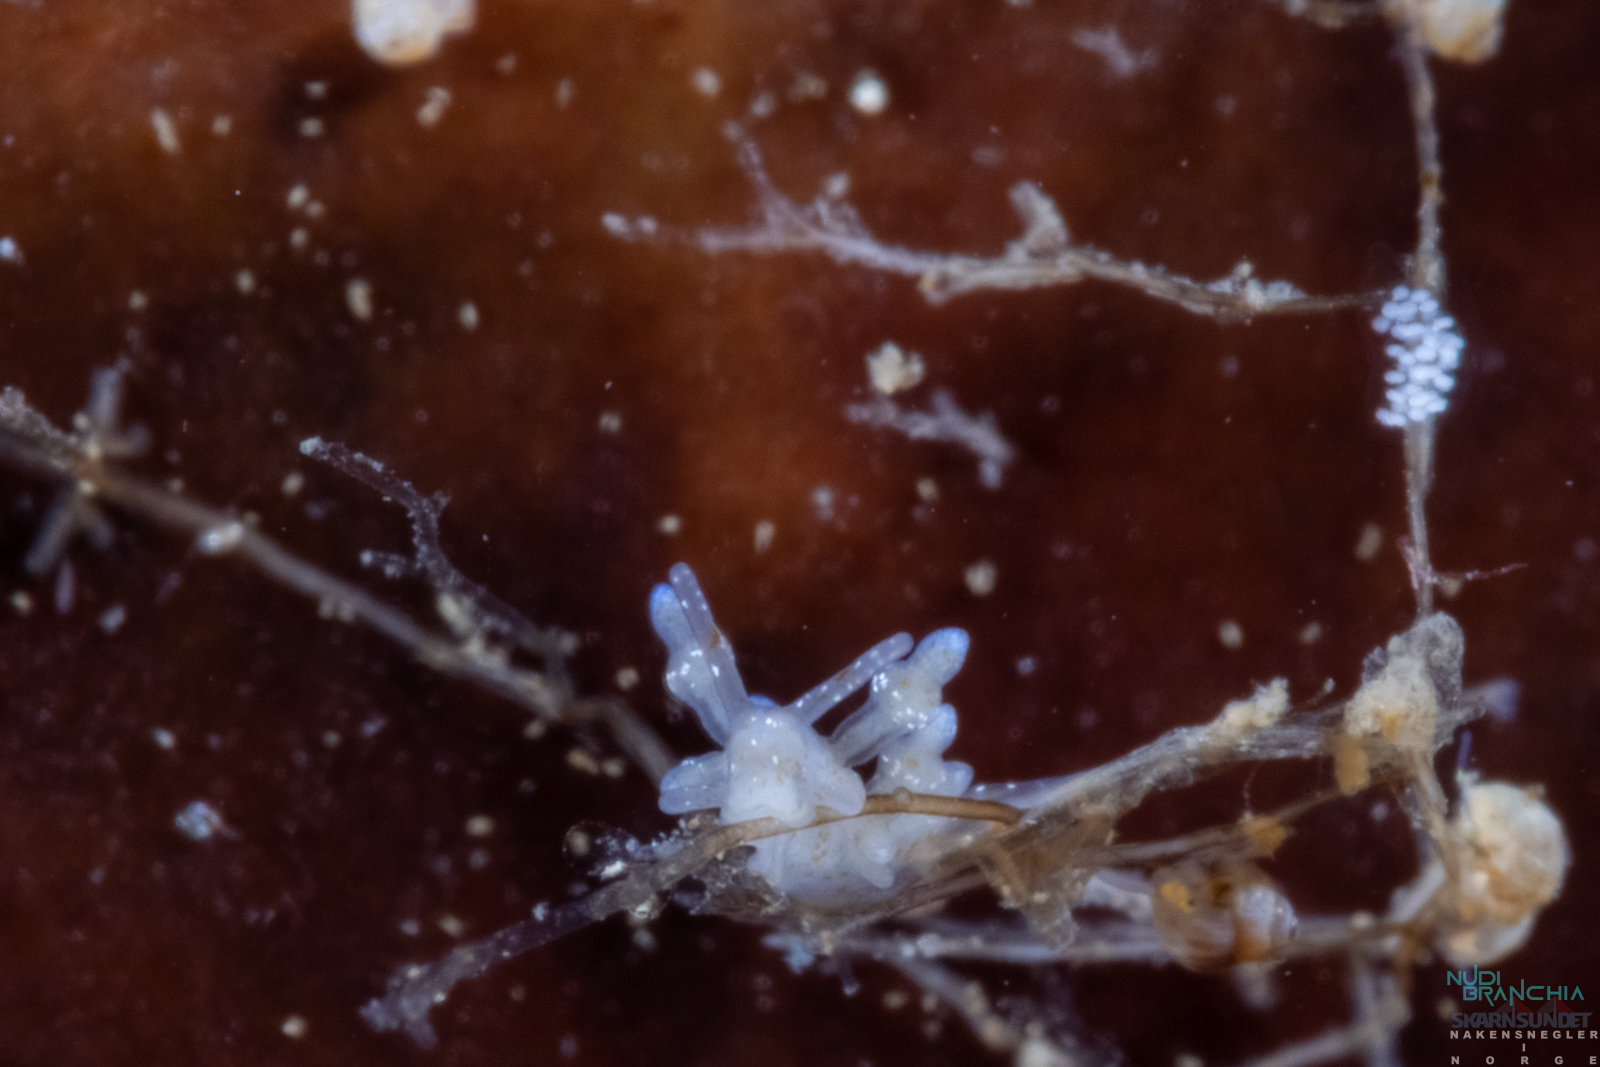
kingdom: Animalia
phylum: Mollusca
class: Gastropoda
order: Nudibranchia
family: Eubranchidae
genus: Eubranchus
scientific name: Eubranchus exiguus
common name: Balloon aeolis
